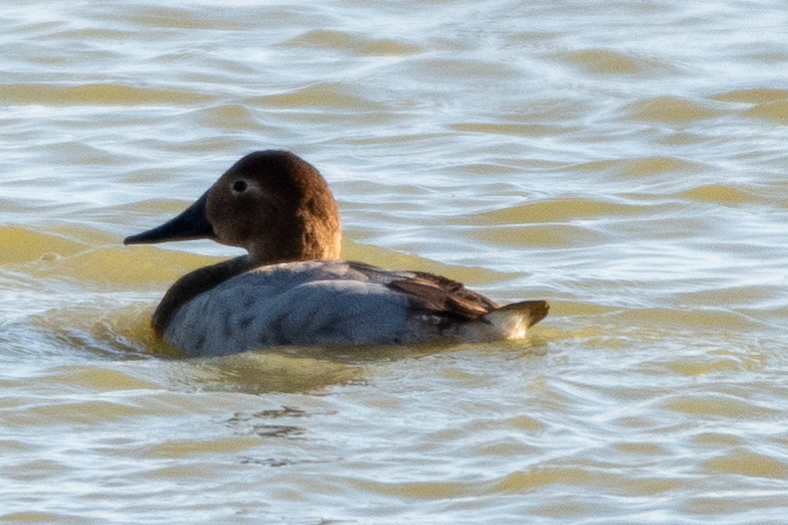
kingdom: Animalia
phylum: Chordata
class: Aves
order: Anseriformes
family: Anatidae
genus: Aythya
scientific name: Aythya valisineria
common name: Canvasback
